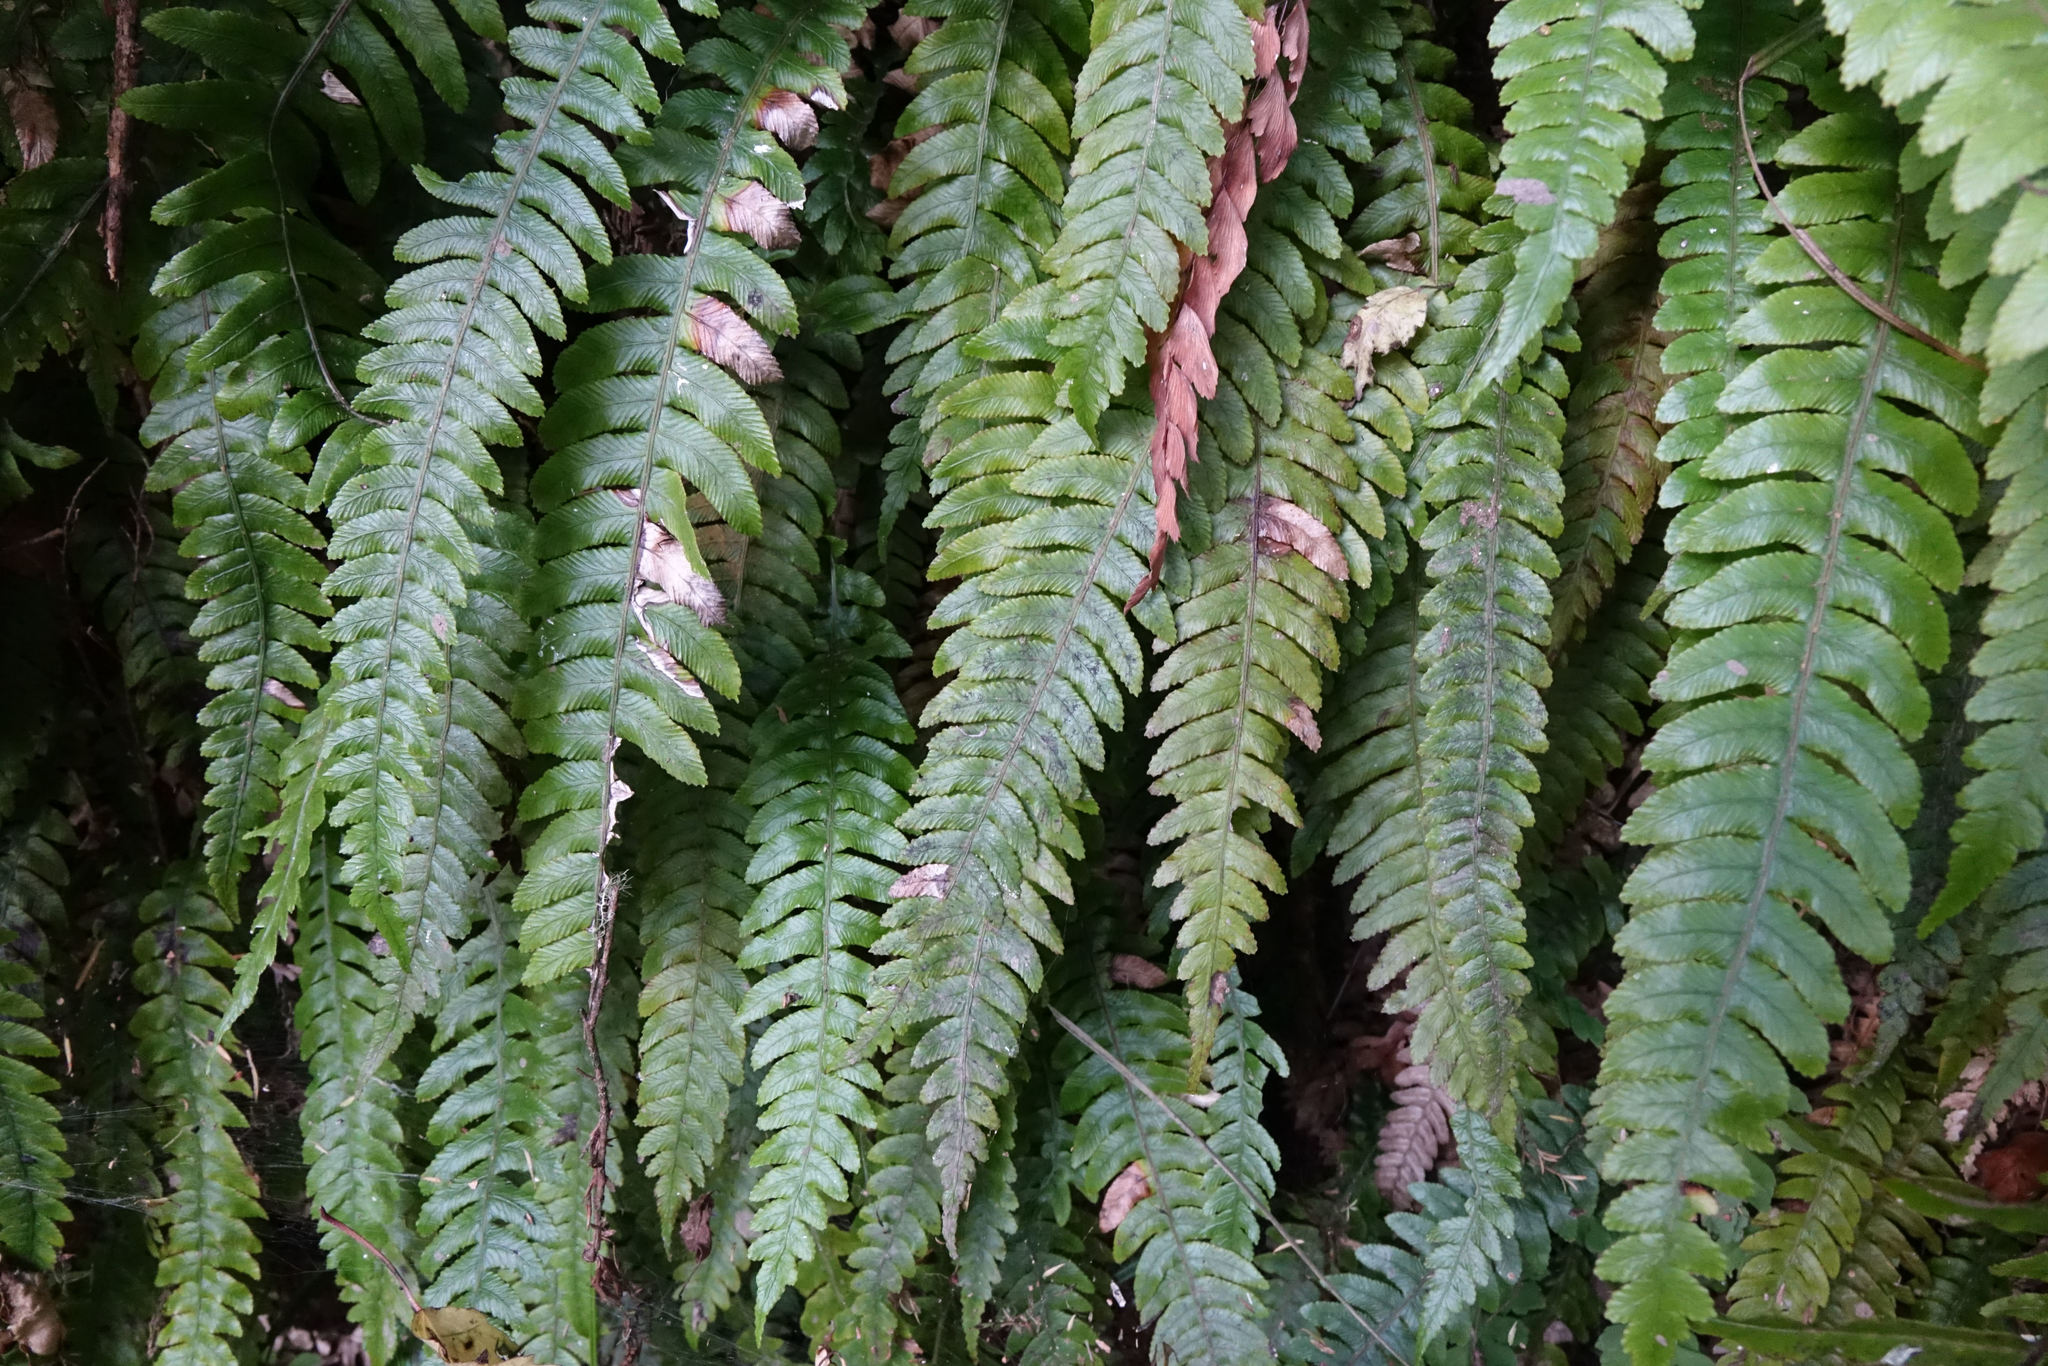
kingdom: Plantae
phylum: Tracheophyta
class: Polypodiopsida
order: Polypodiales
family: Blechnaceae
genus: Austroblechnum
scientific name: Austroblechnum lanceolatum
